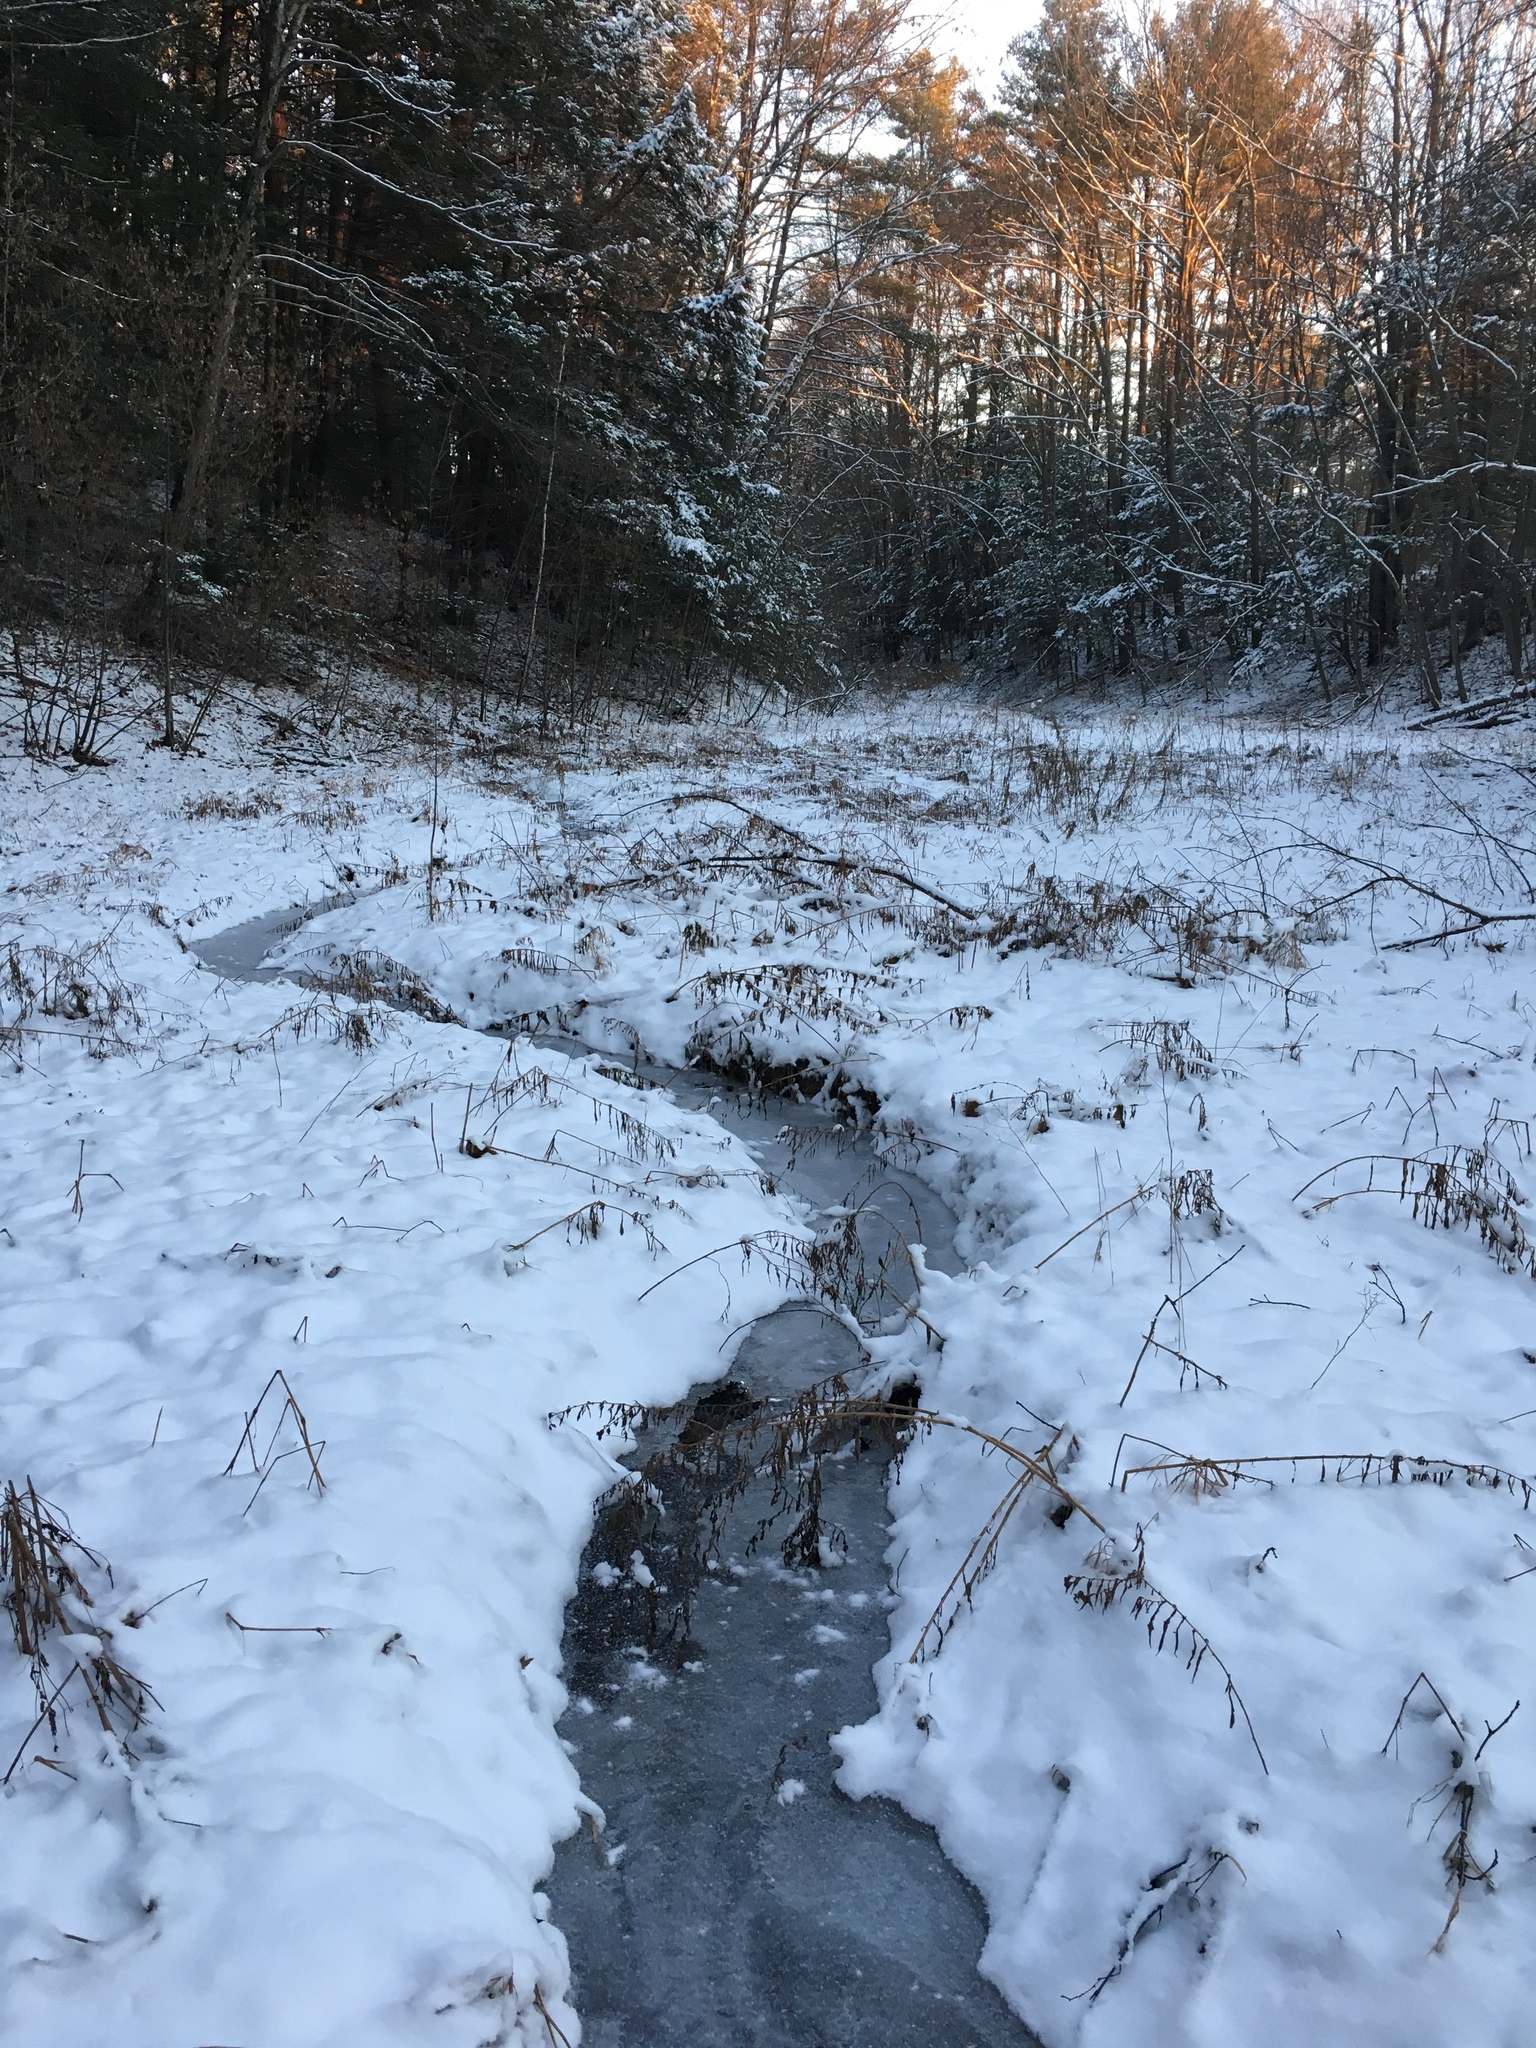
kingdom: Plantae
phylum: Tracheophyta
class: Pinopsida
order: Pinales
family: Pinaceae
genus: Pinus
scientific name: Pinus strobus
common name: Weymouth pine
